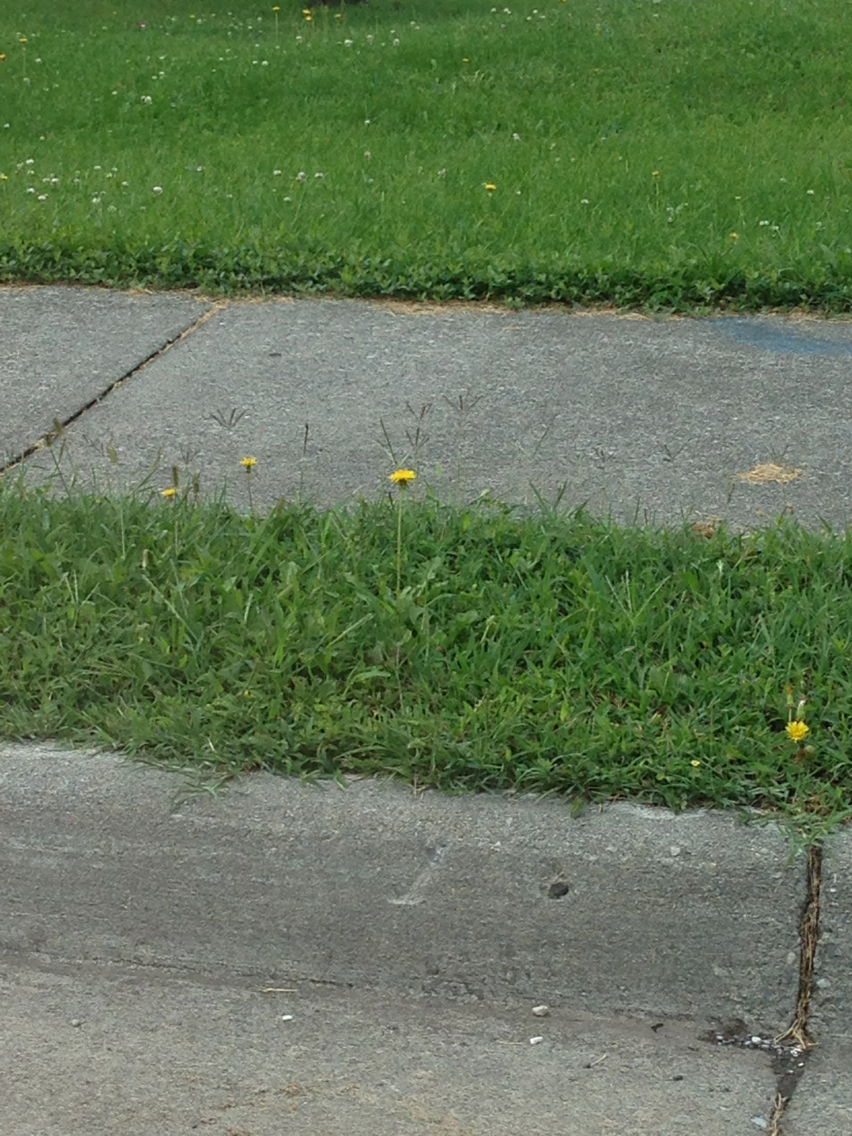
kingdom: Plantae
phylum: Tracheophyta
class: Magnoliopsida
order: Asterales
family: Asteraceae
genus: Taraxacum
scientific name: Taraxacum
